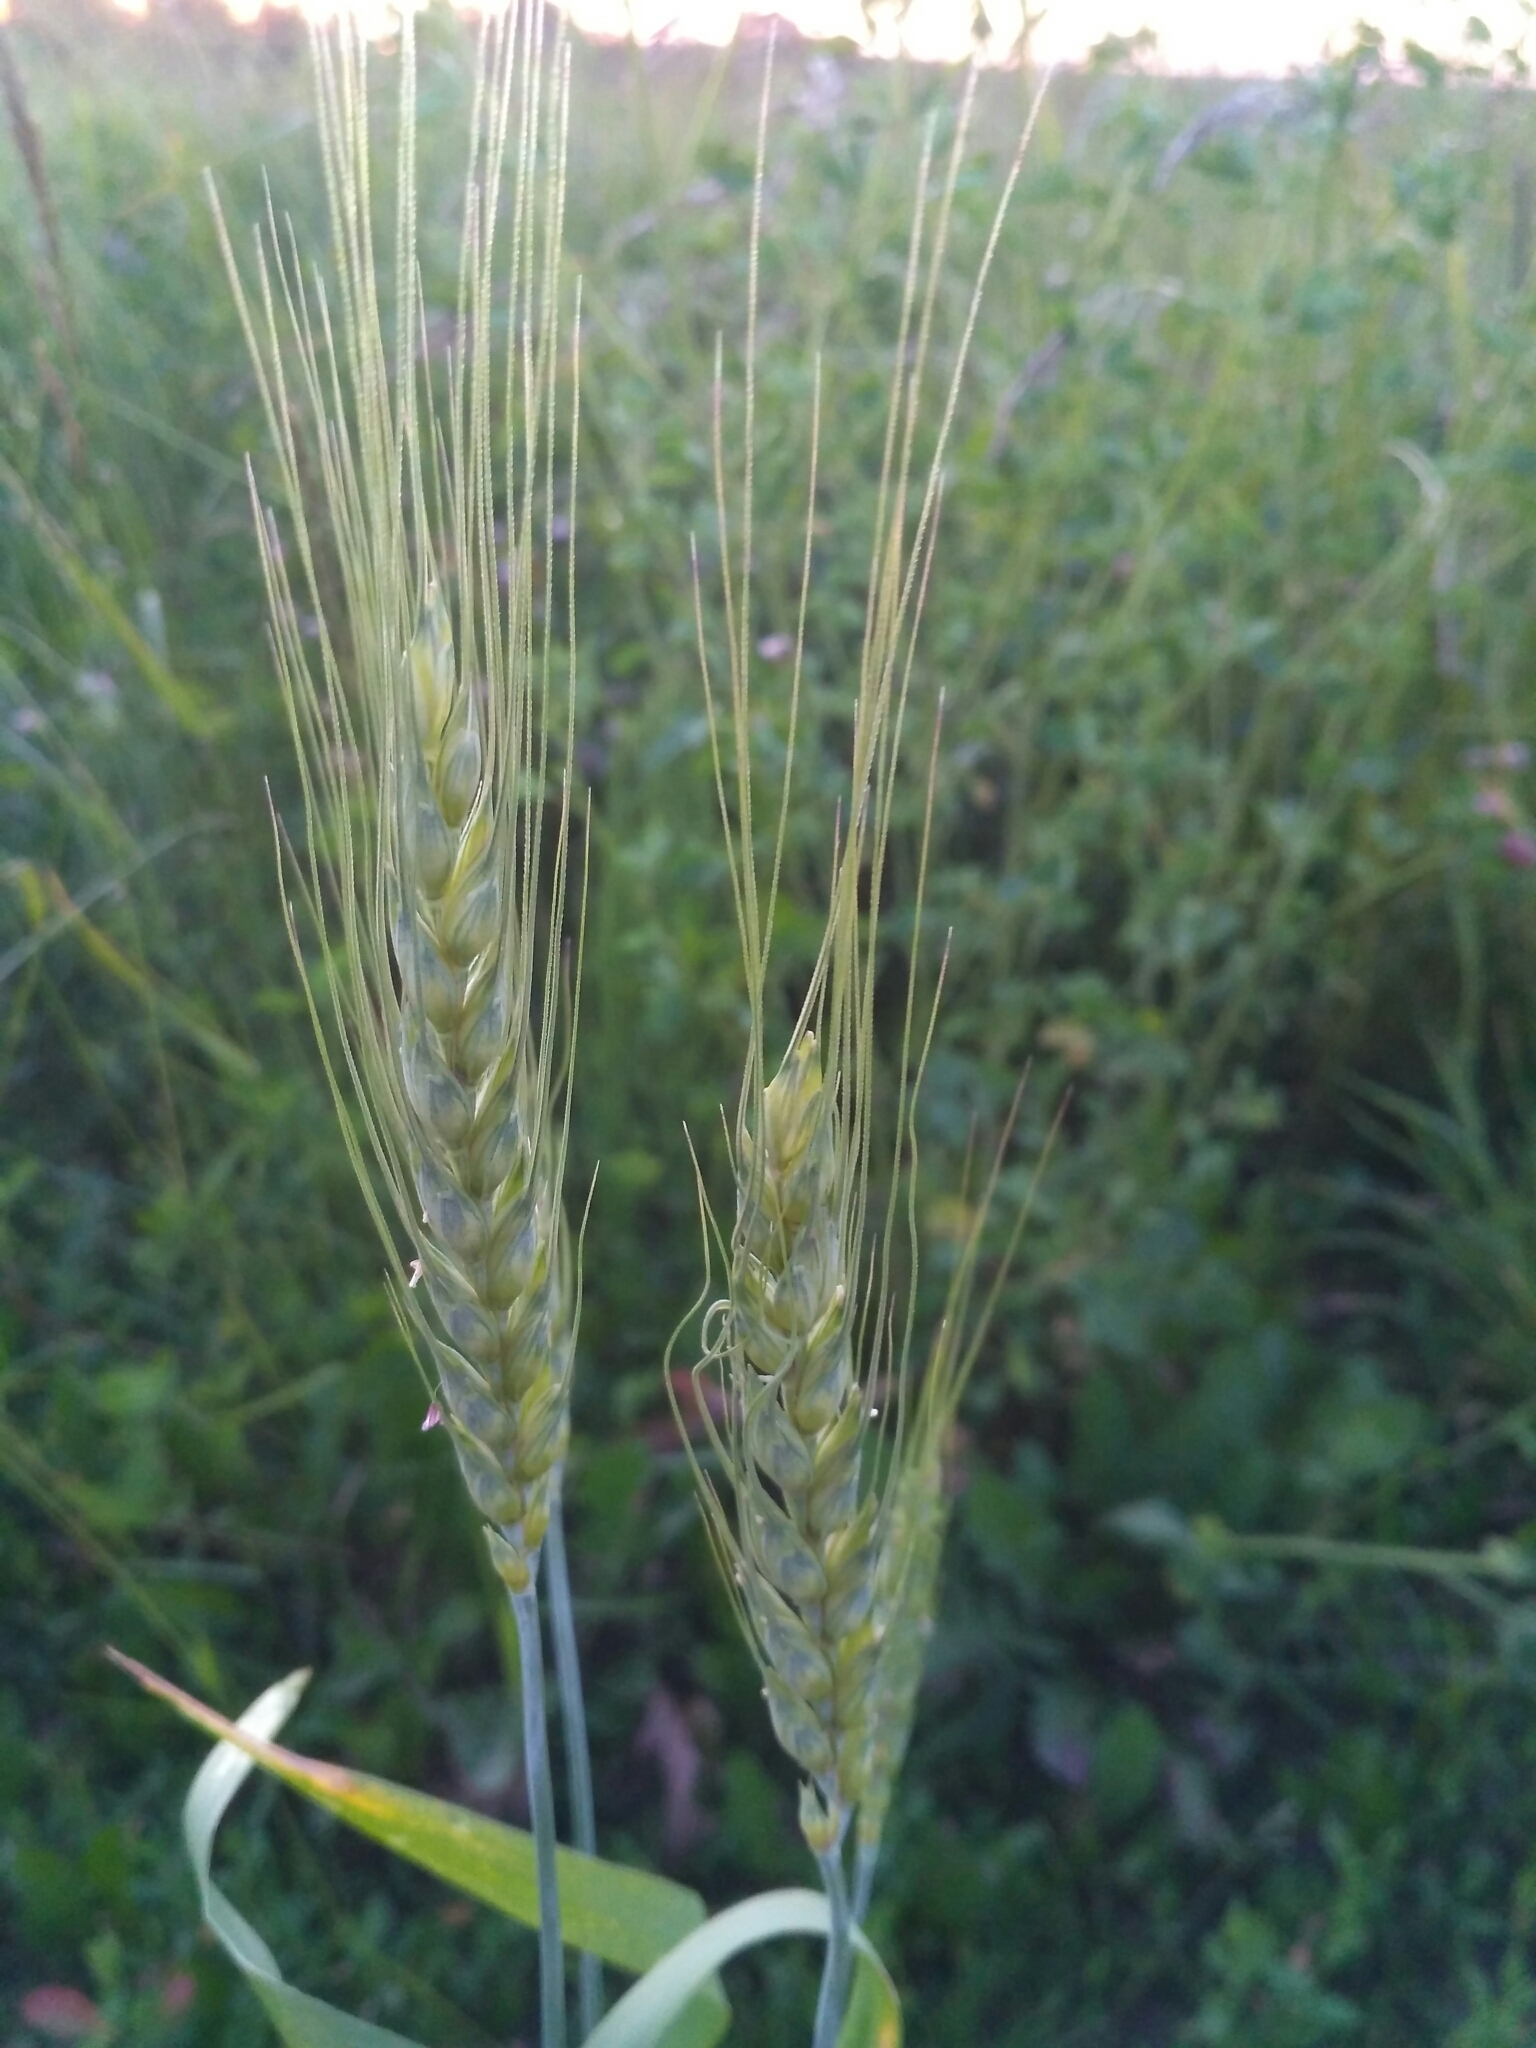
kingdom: Plantae
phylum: Tracheophyta
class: Liliopsida
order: Poales
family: Poaceae
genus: Triticum
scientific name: Triticum aestivum
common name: Common wheat
